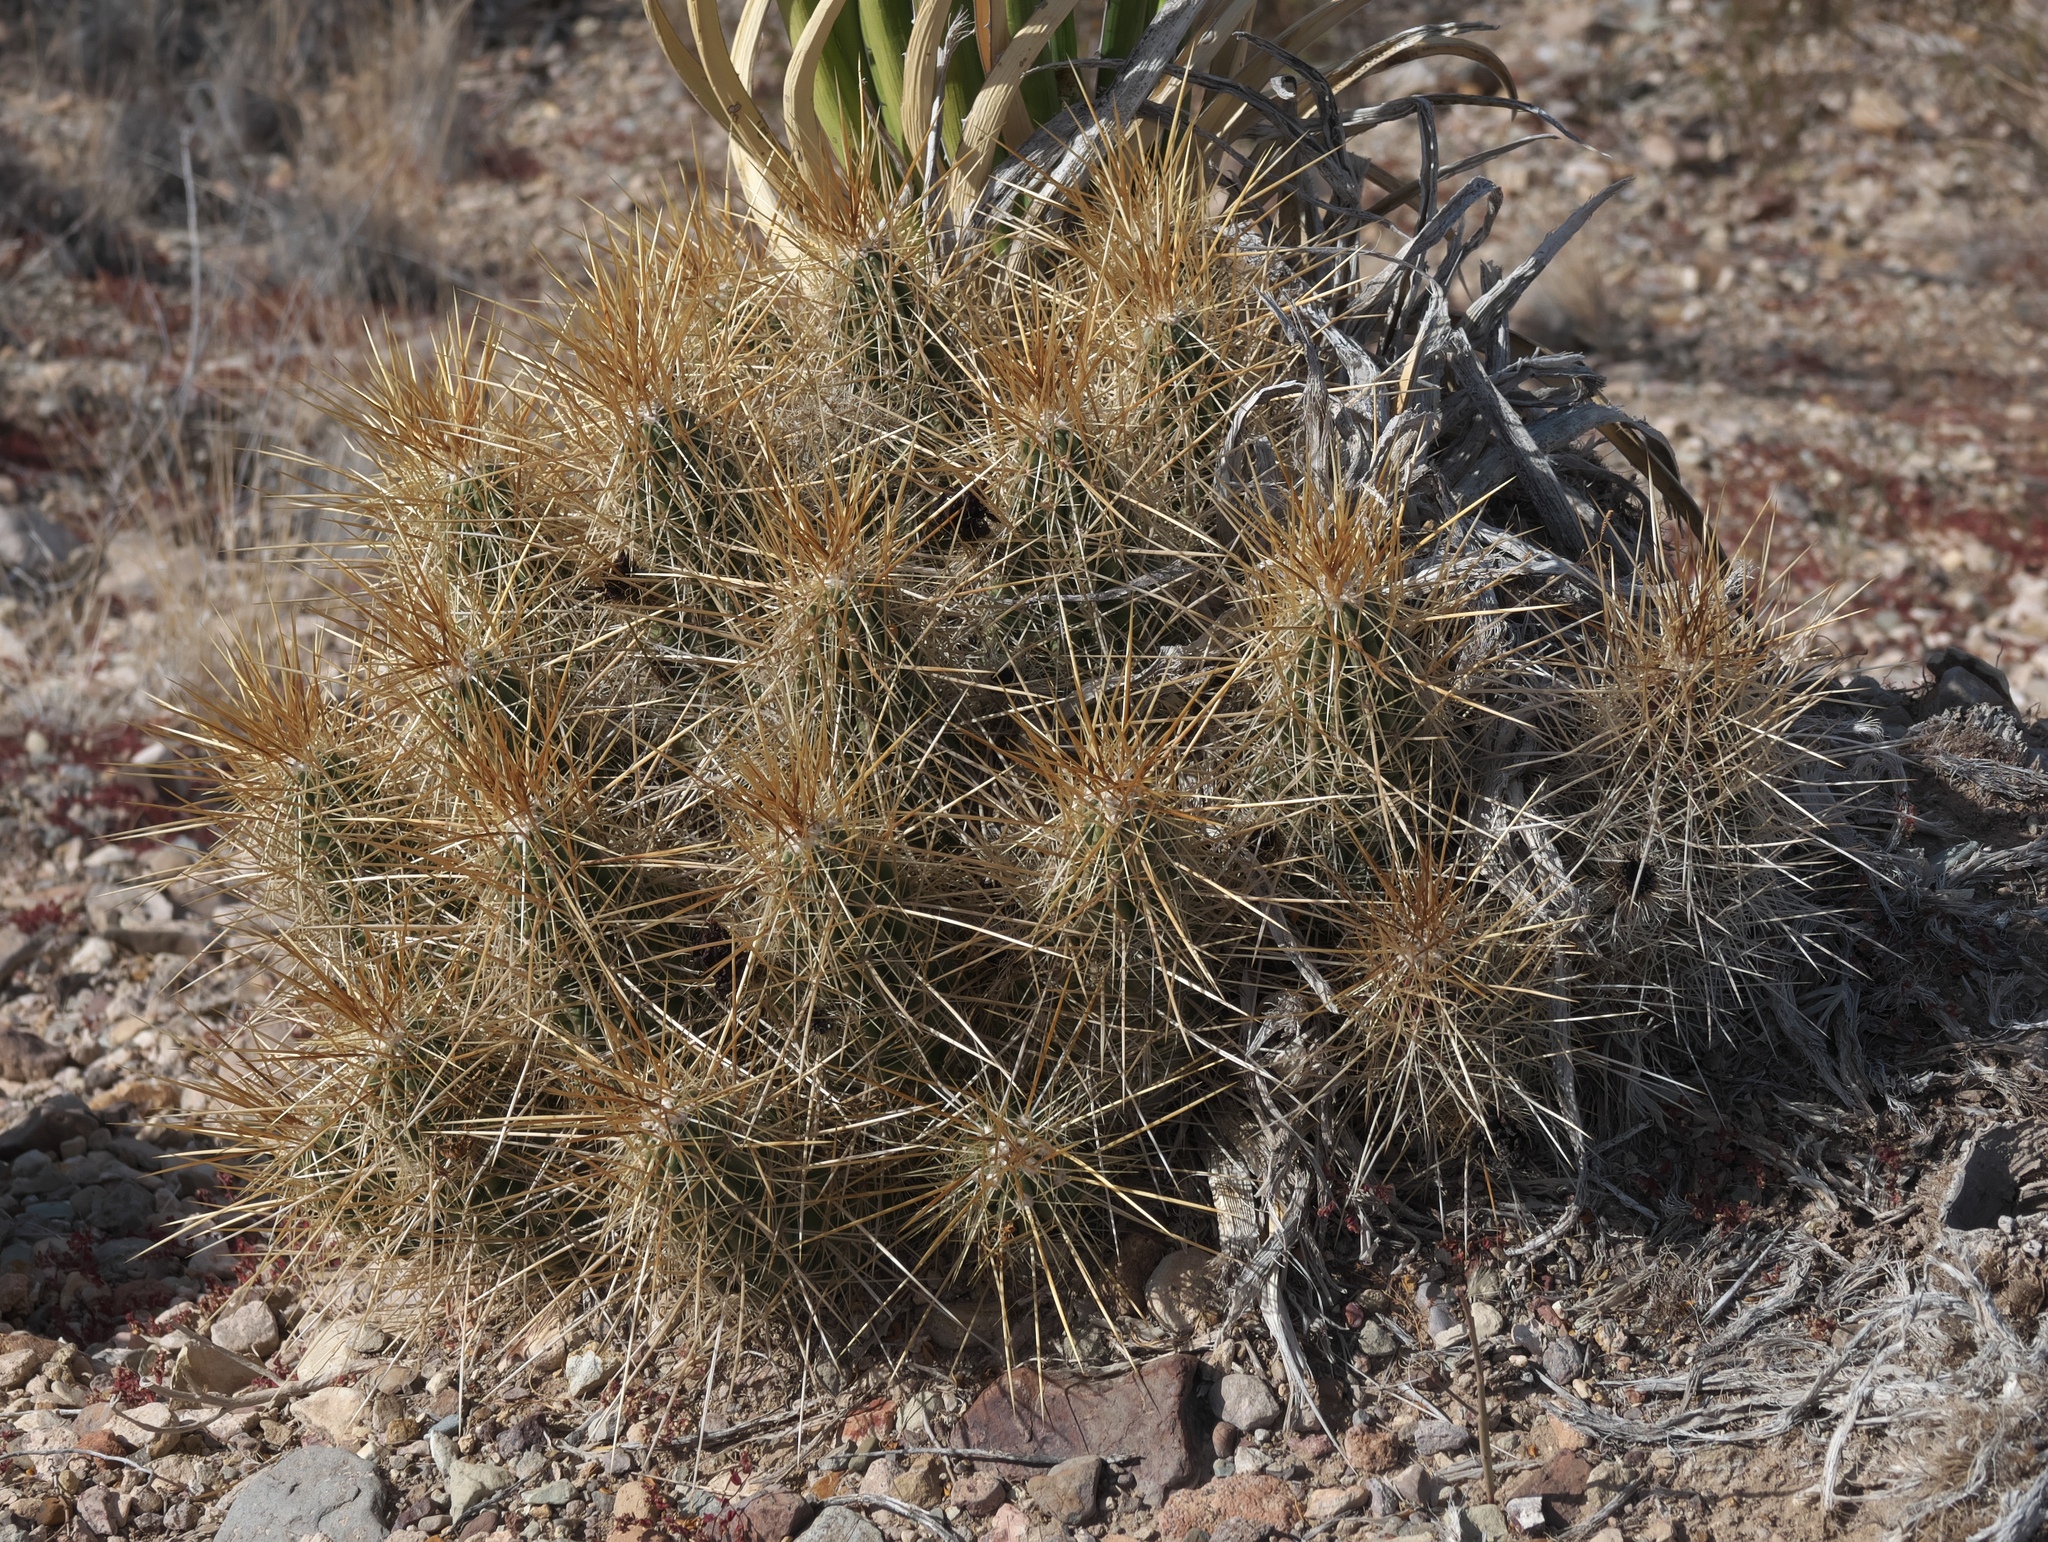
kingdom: Plantae
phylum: Tracheophyta
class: Magnoliopsida
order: Caryophyllales
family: Cactaceae
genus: Echinocereus
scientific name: Echinocereus stramineus
